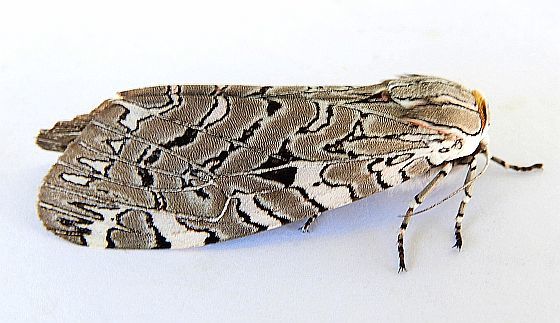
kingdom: Animalia
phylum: Arthropoda
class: Insecta
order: Lepidoptera
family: Erebidae
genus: Arachnis
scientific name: Arachnis picta
